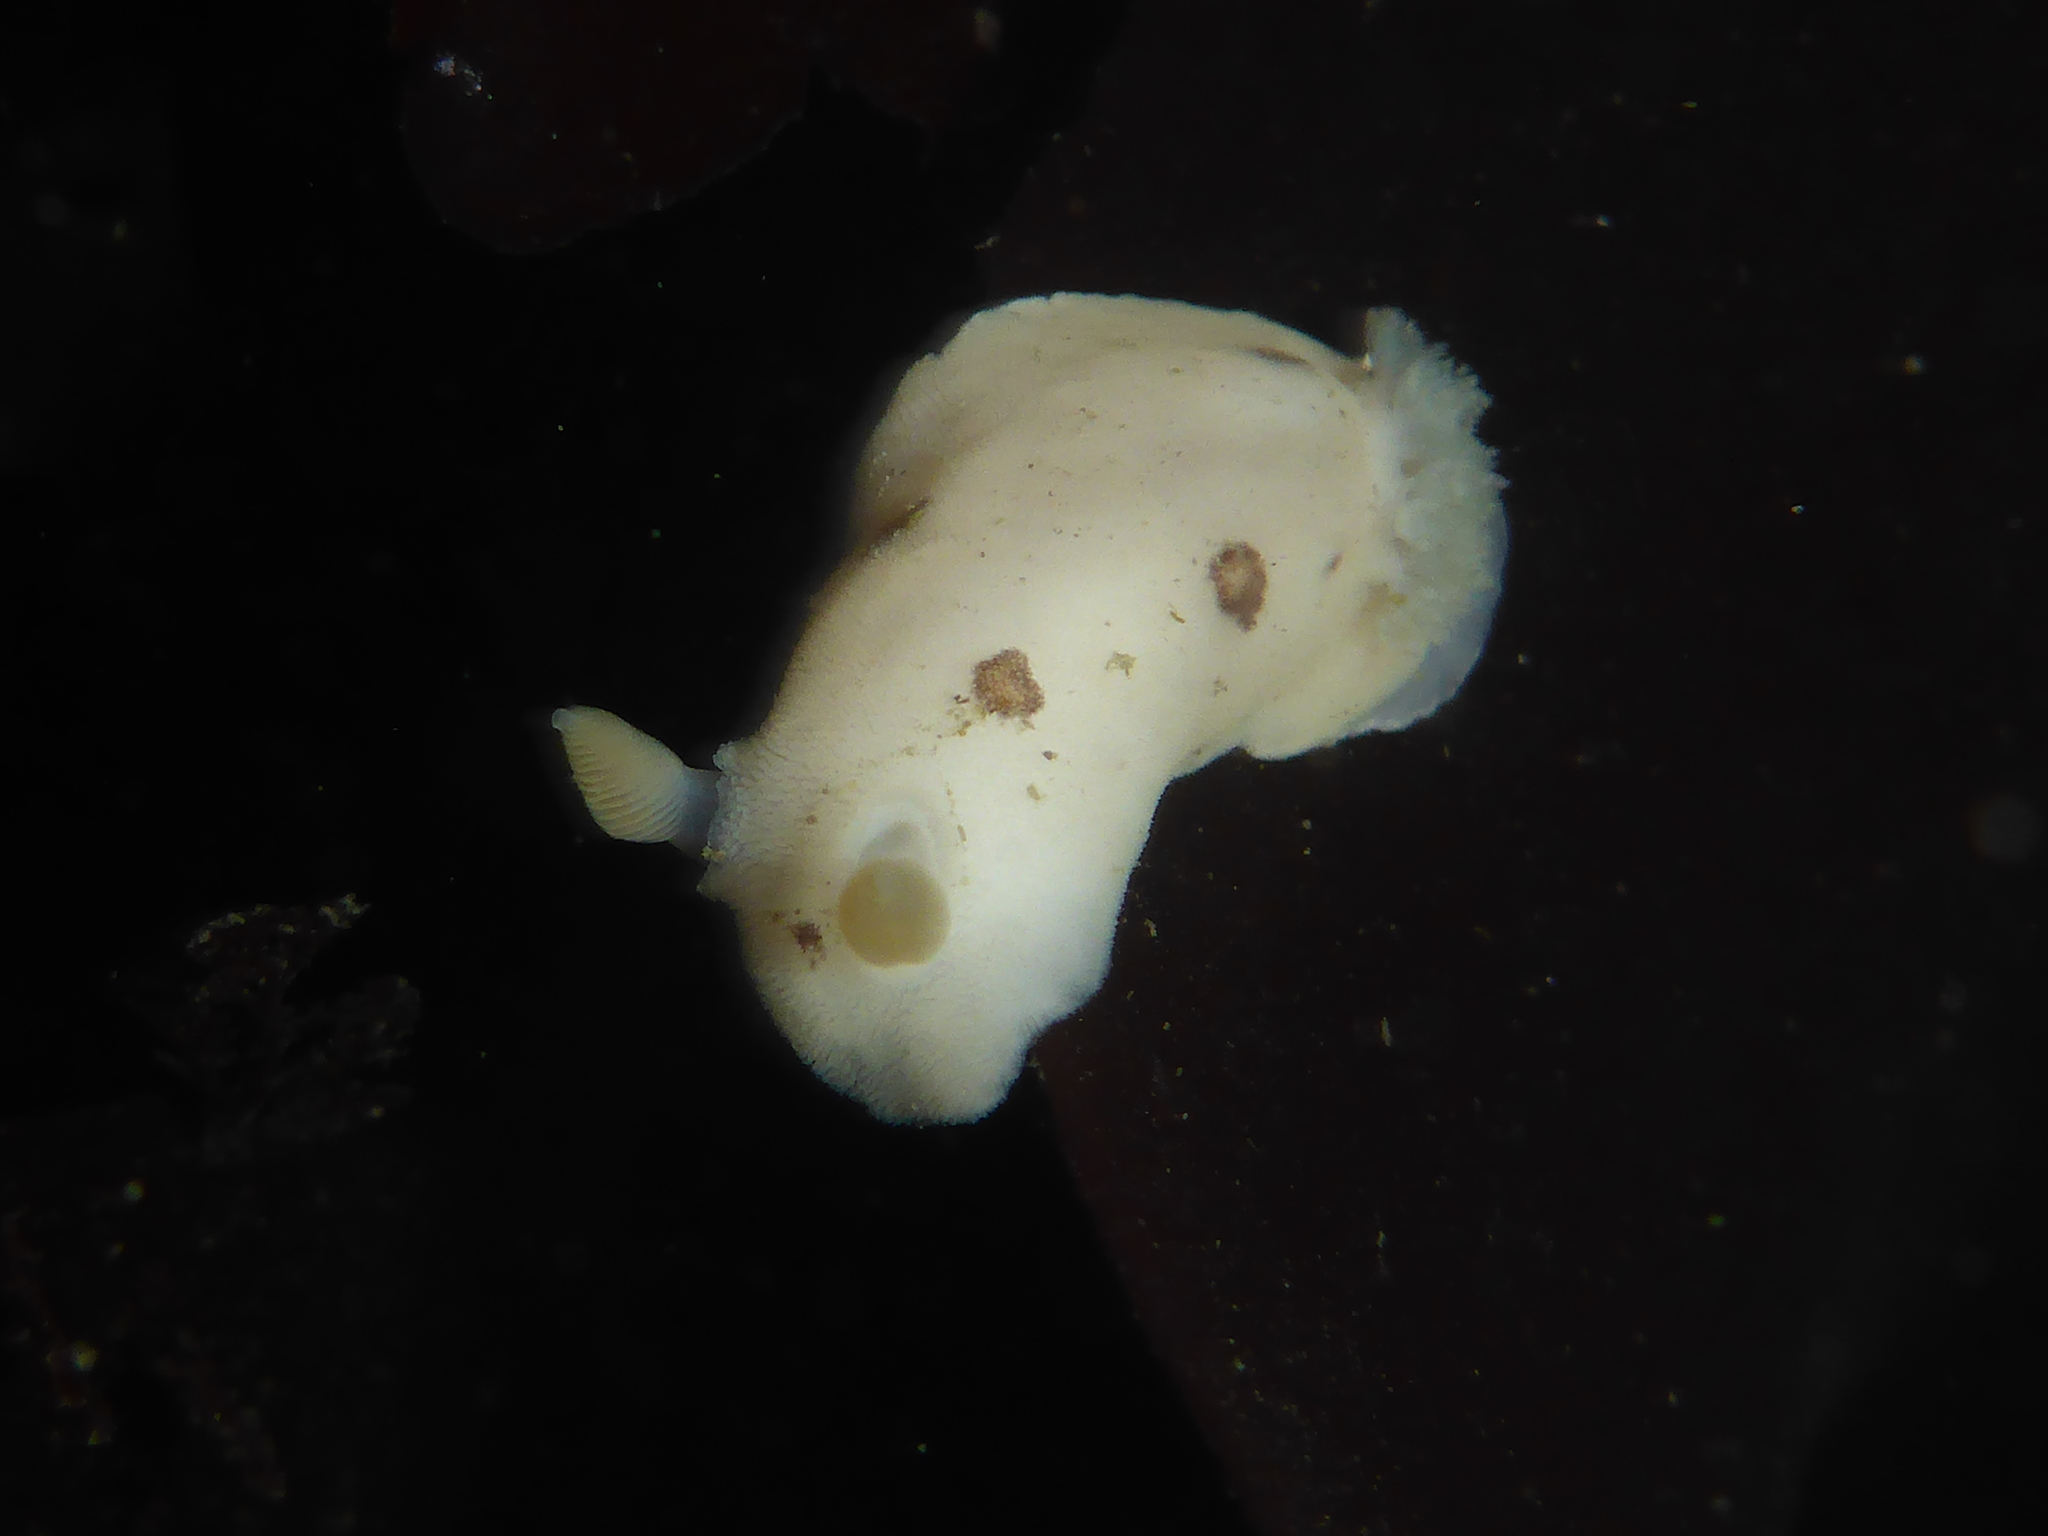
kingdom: Animalia
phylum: Mollusca
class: Gastropoda
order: Nudibranchia
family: Discodorididae
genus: Diaulula
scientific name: Diaulula sandiegensis
